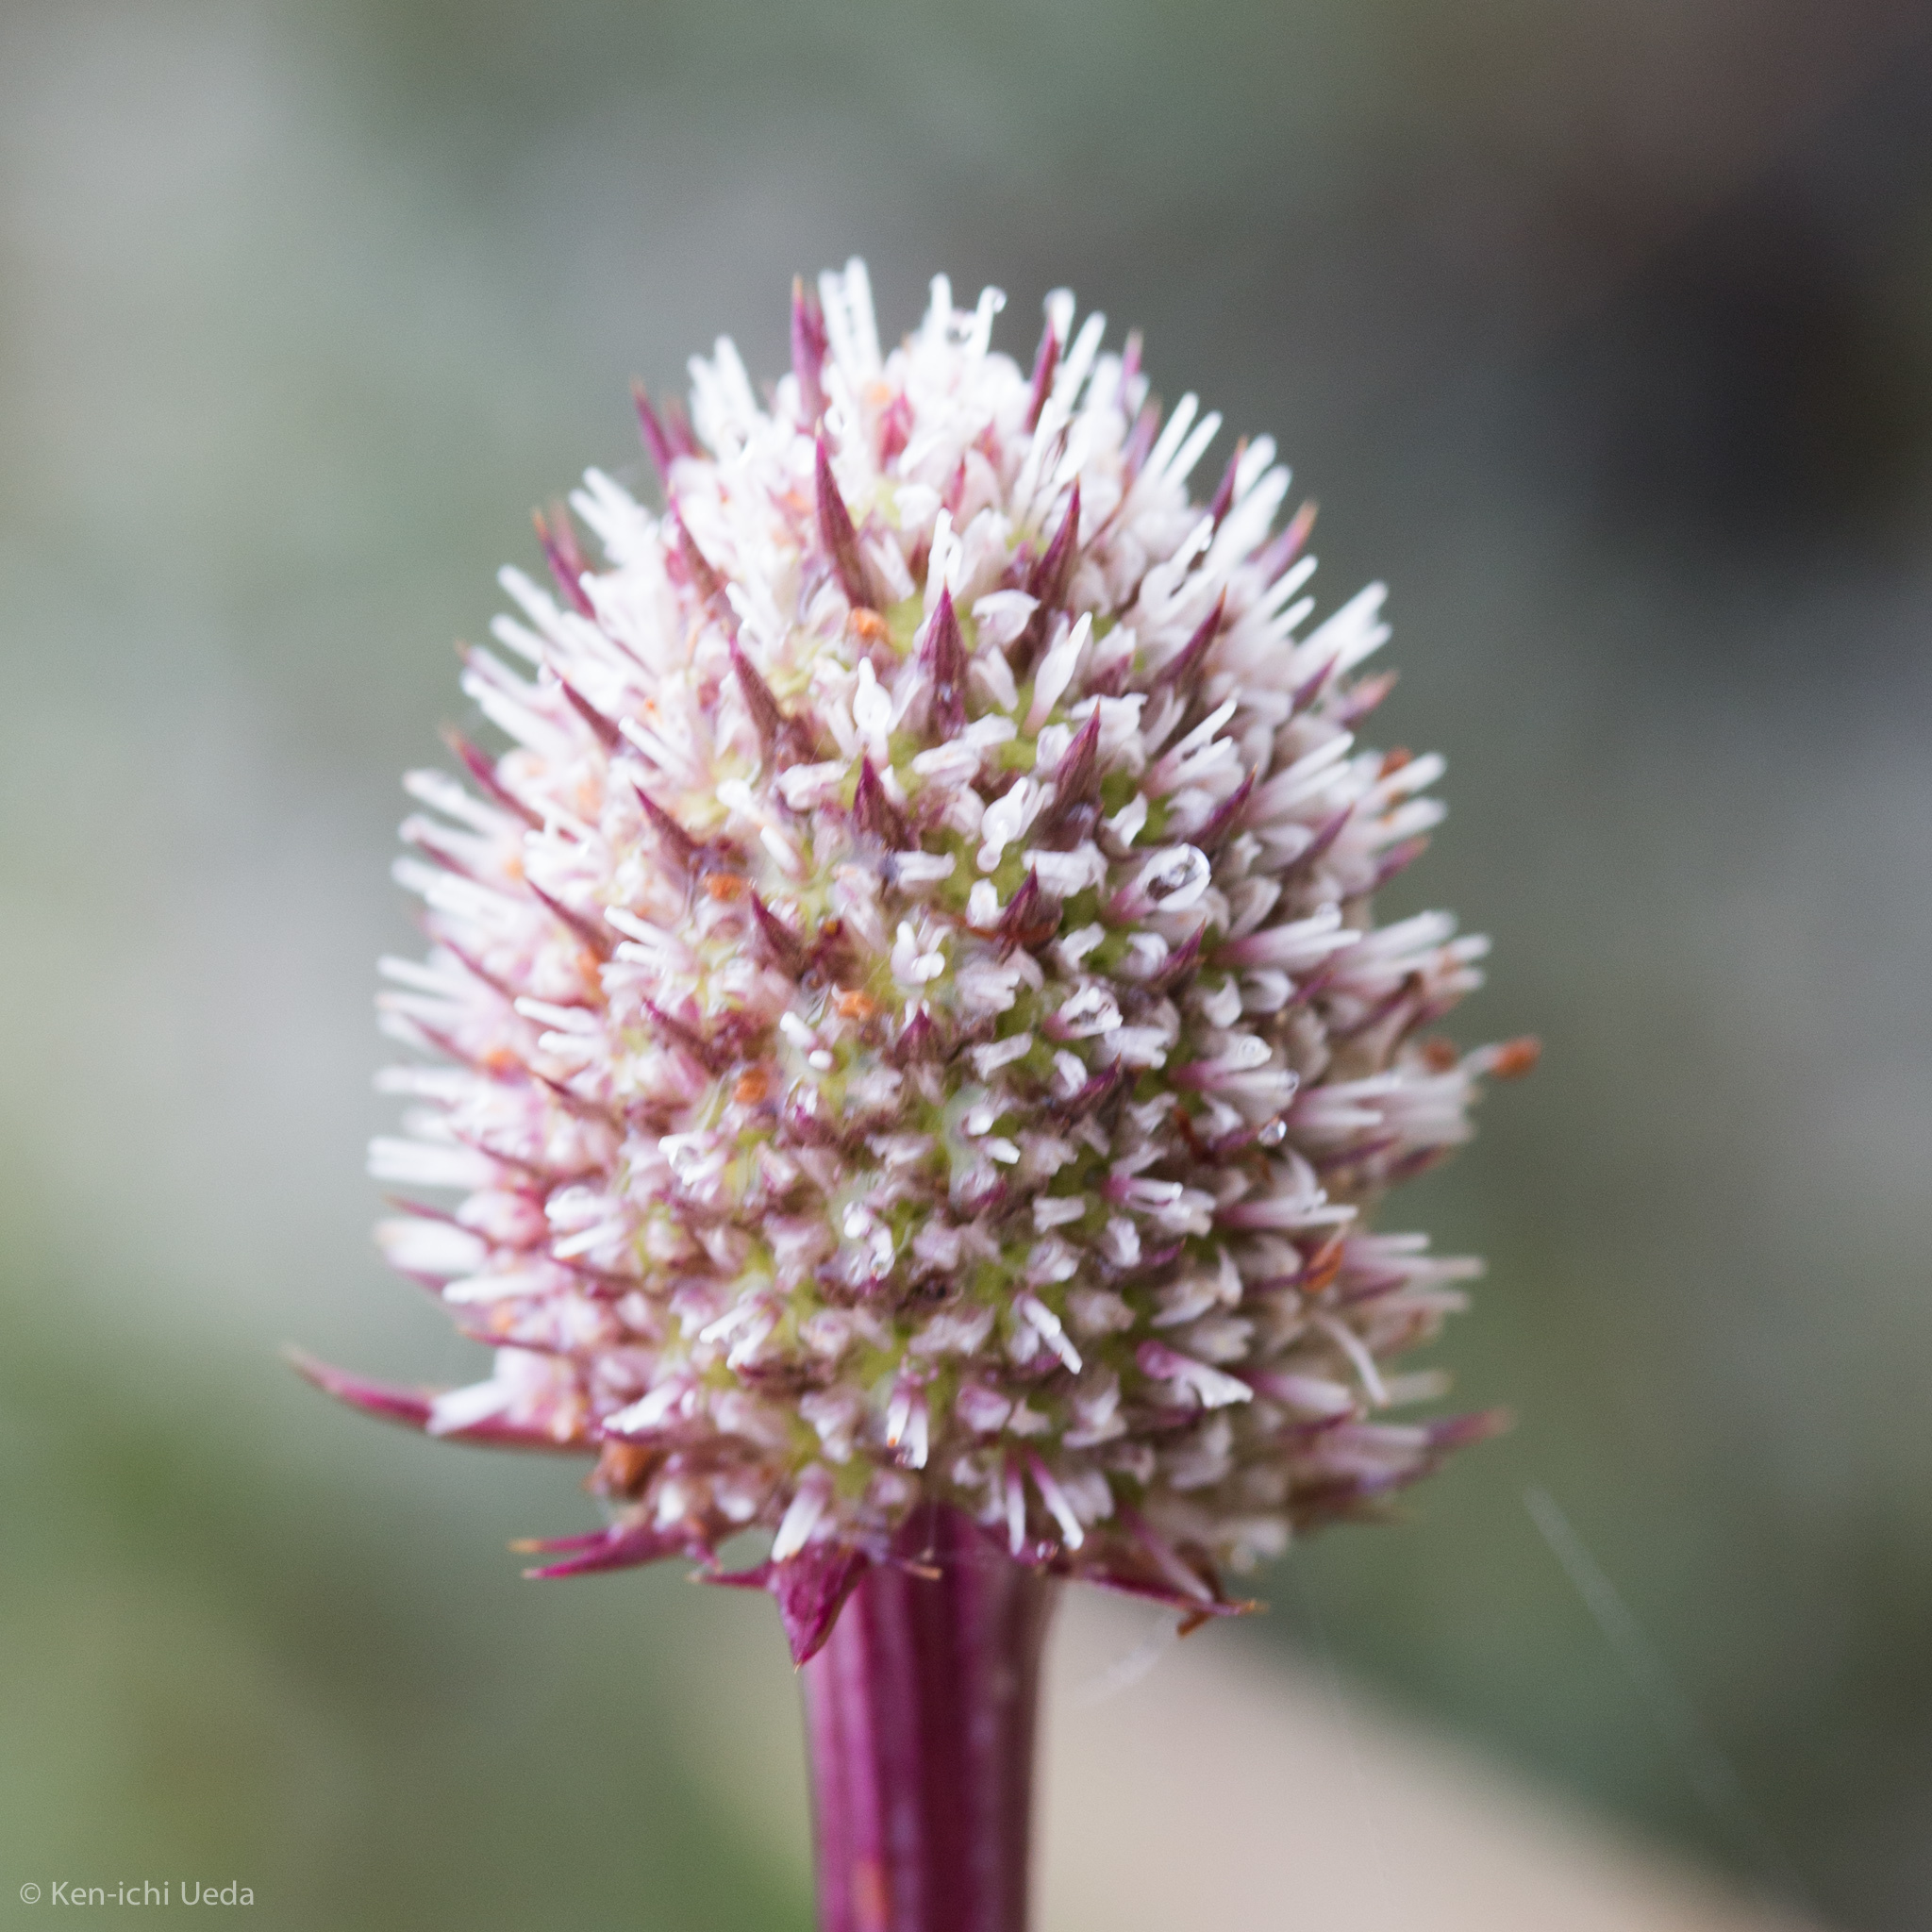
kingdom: Plantae
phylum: Tracheophyta
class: Magnoliopsida
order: Apiales
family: Apiaceae
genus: Eryngium
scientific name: Eryngium humboldtii
